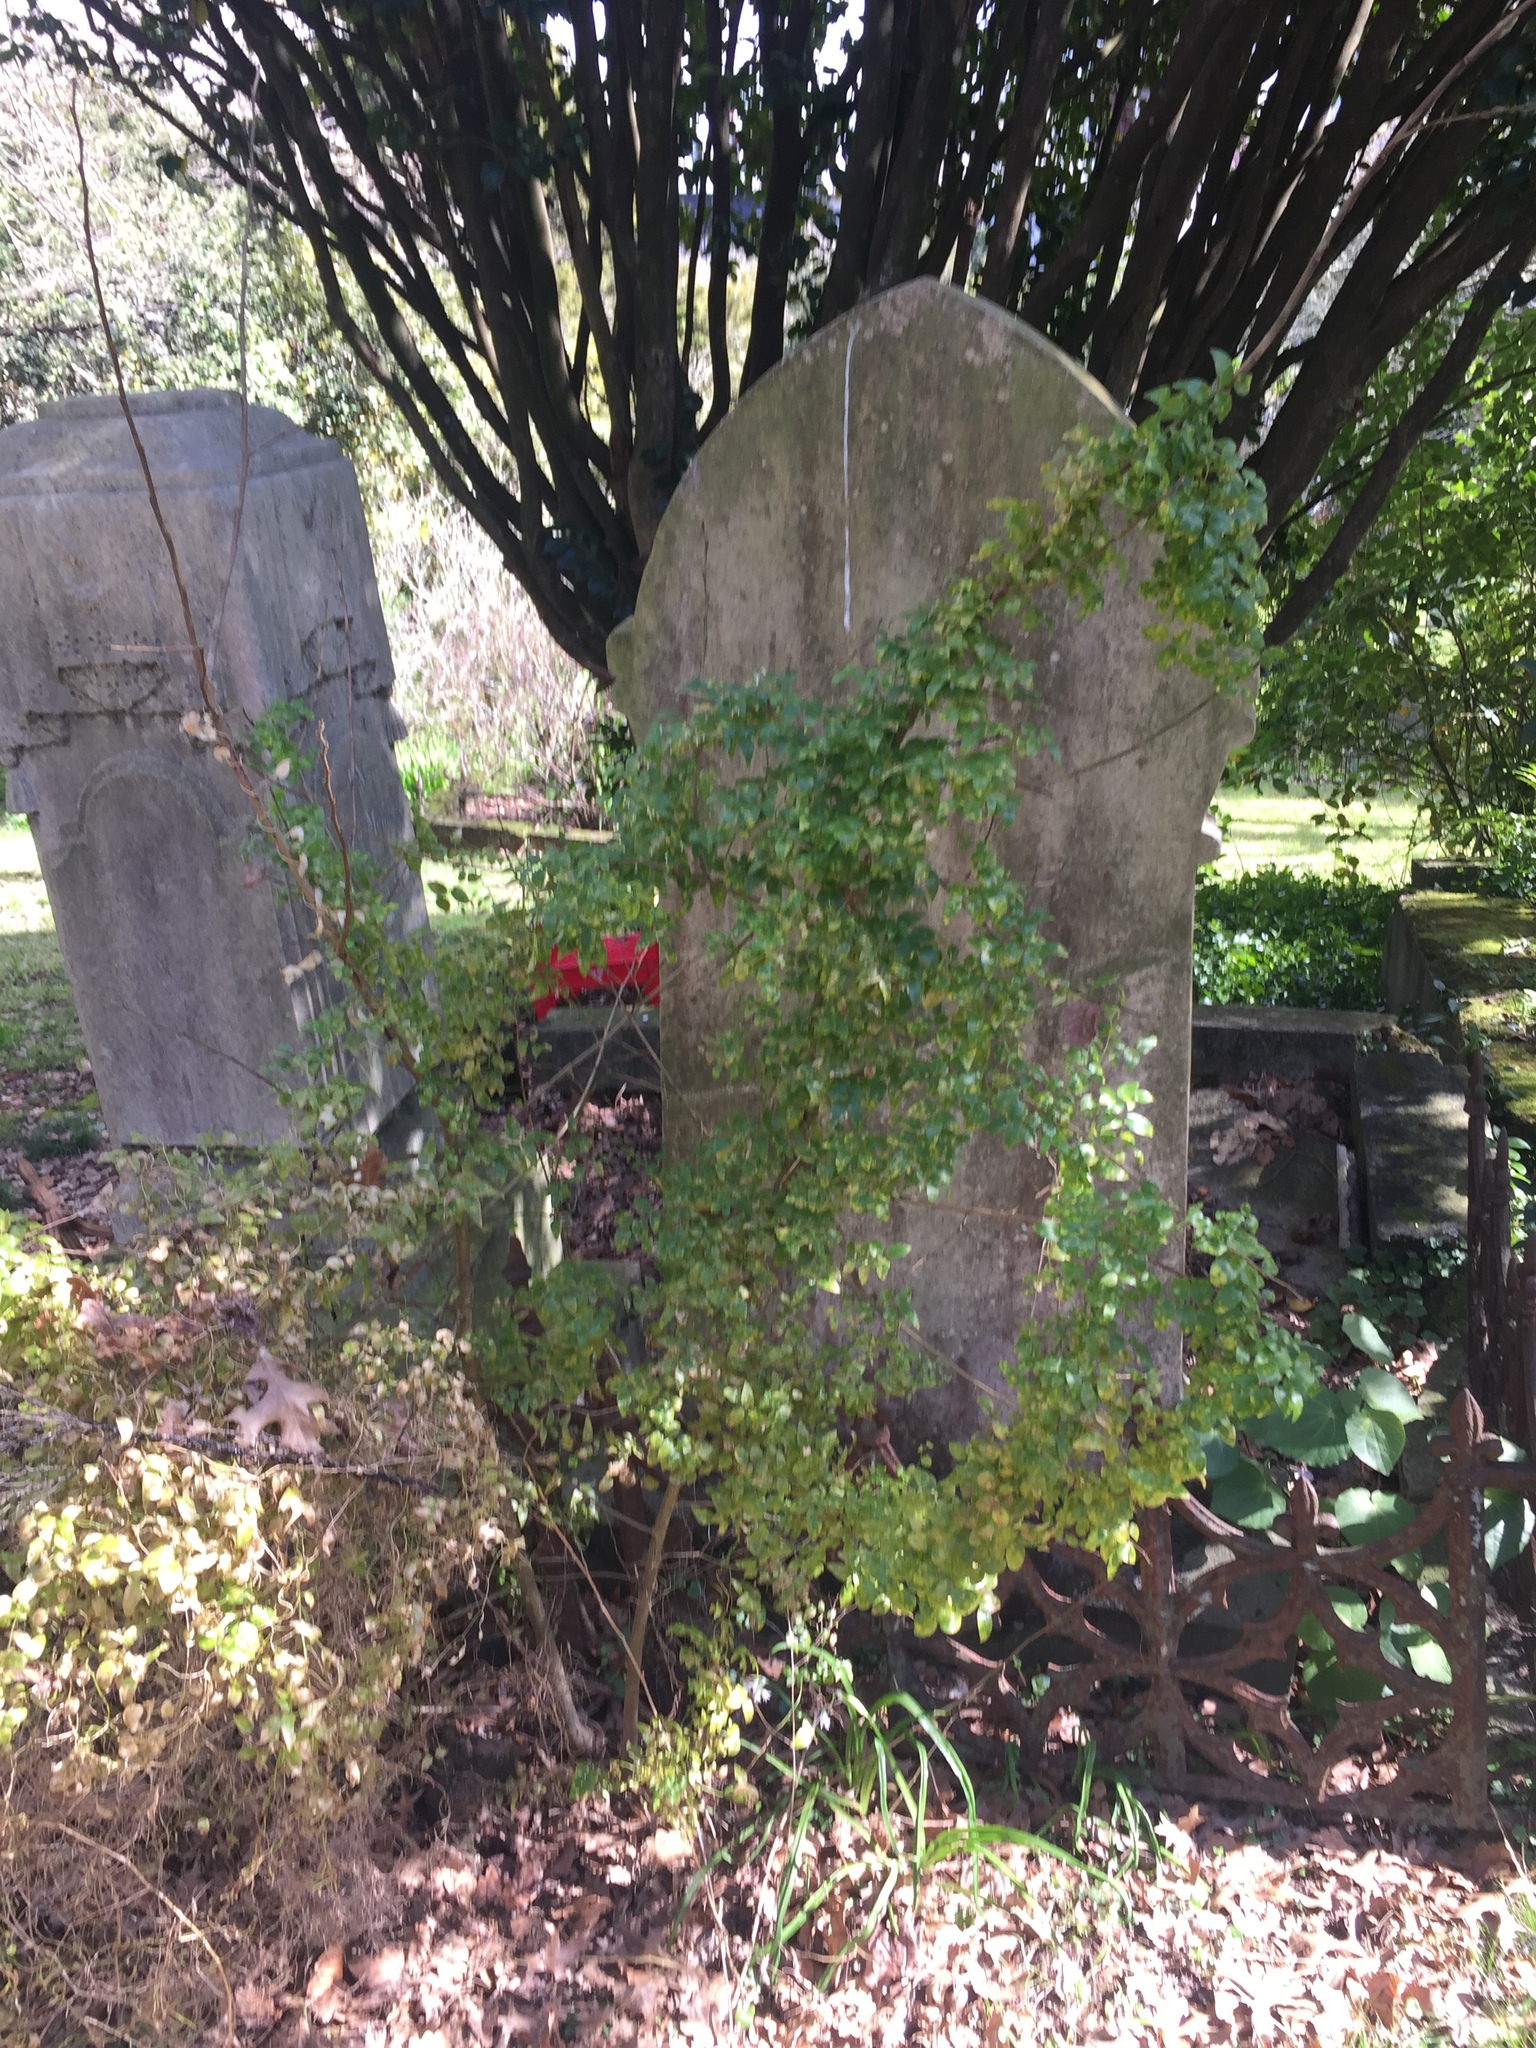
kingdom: Plantae
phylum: Tracheophyta
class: Liliopsida
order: Asparagales
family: Asparagaceae
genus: Asparagus
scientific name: Asparagus asparagoides
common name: African asparagus fern
